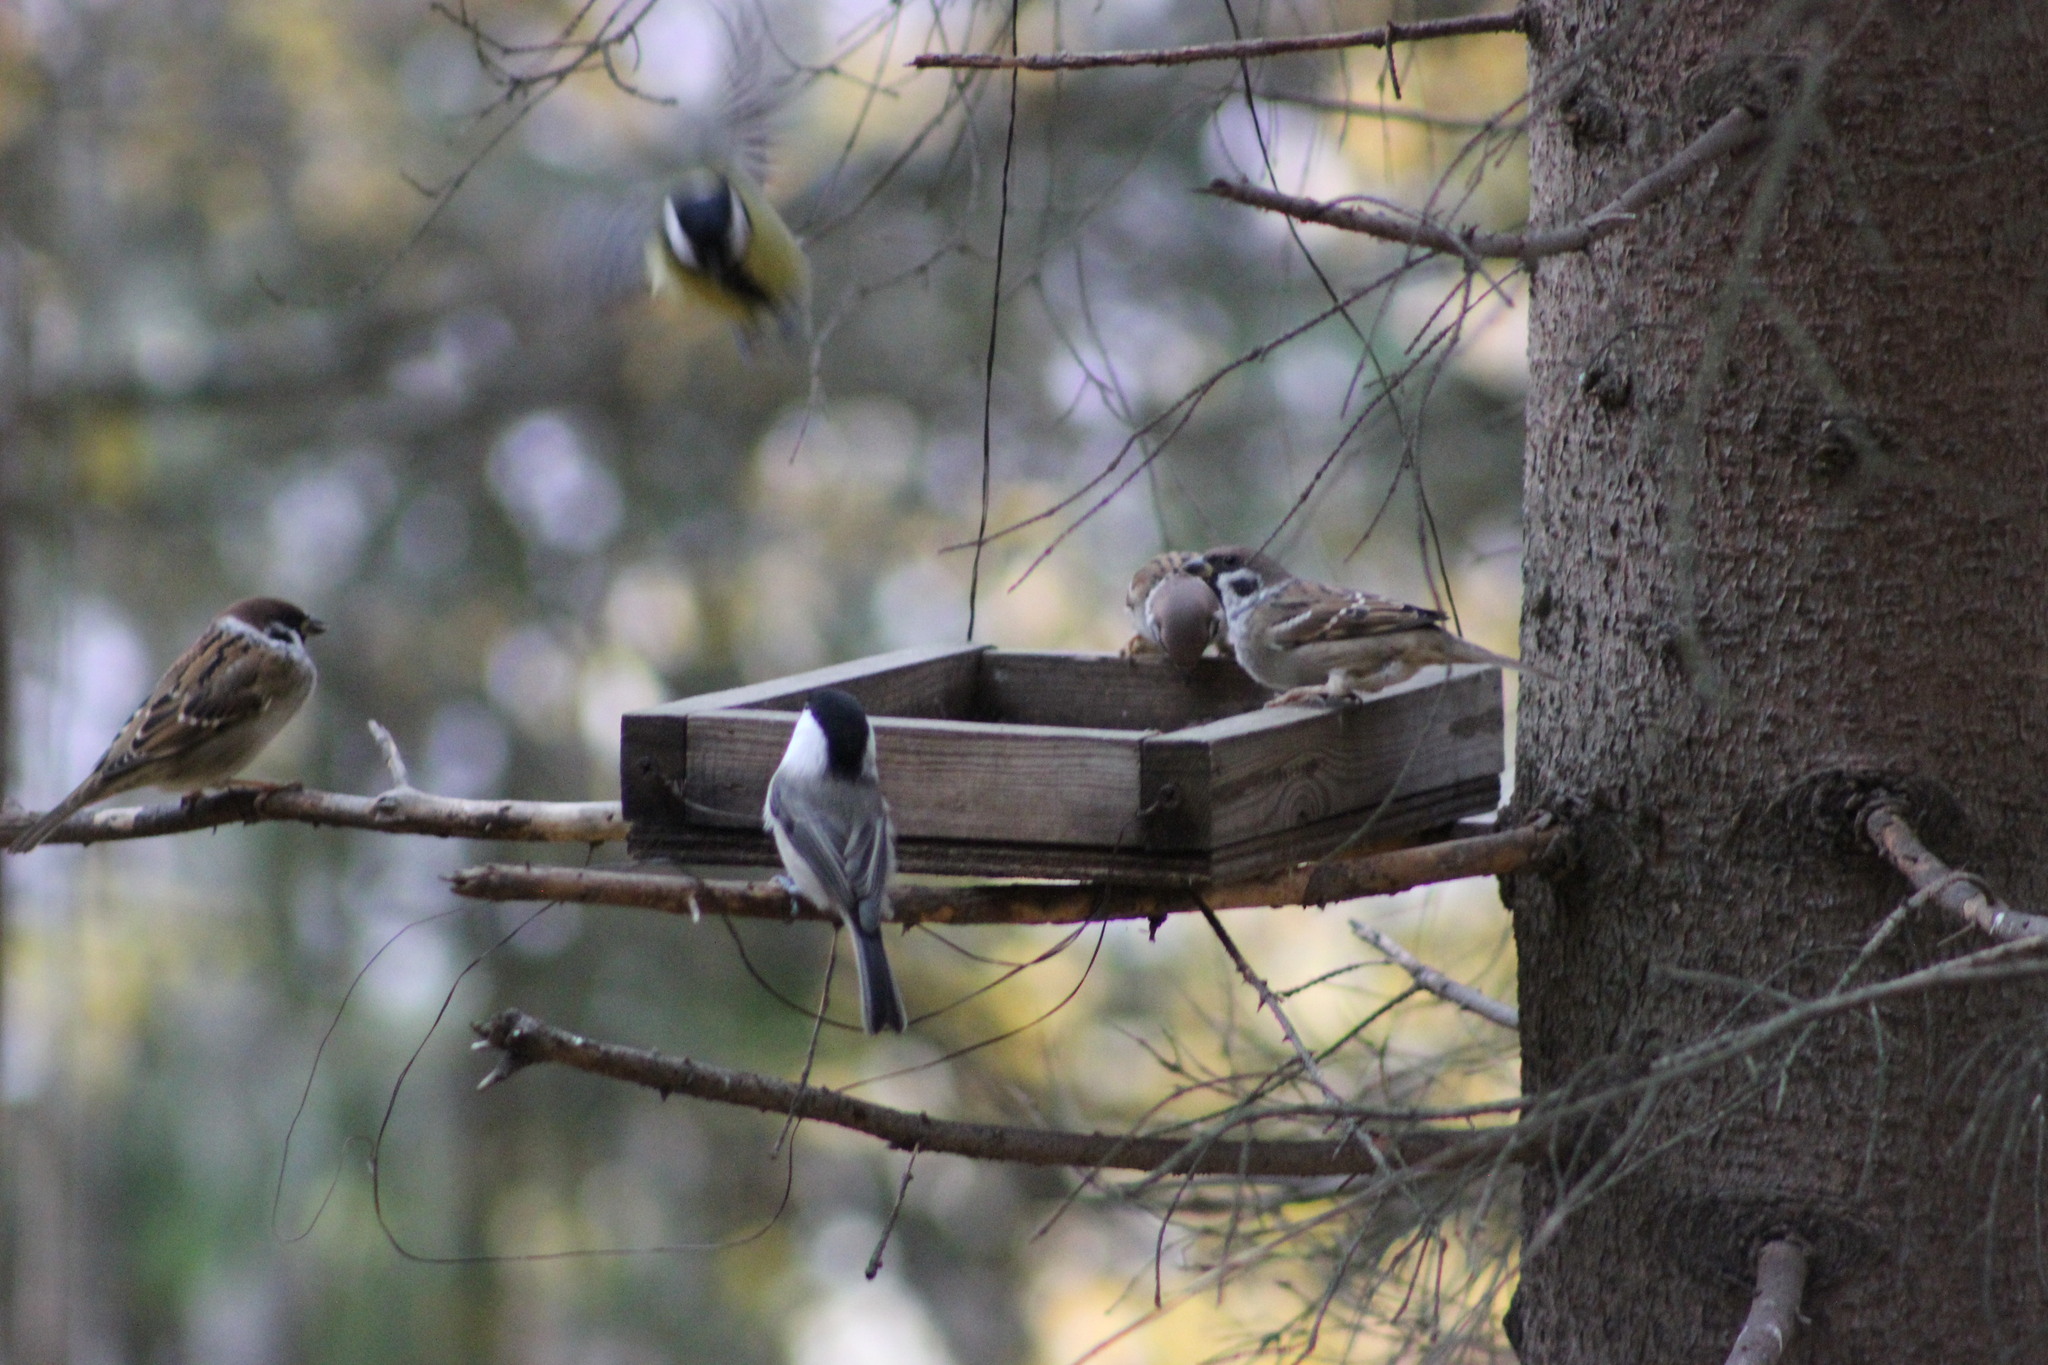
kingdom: Animalia
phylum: Chordata
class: Aves
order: Passeriformes
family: Passeridae
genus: Passer
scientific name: Passer montanus
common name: Eurasian tree sparrow
